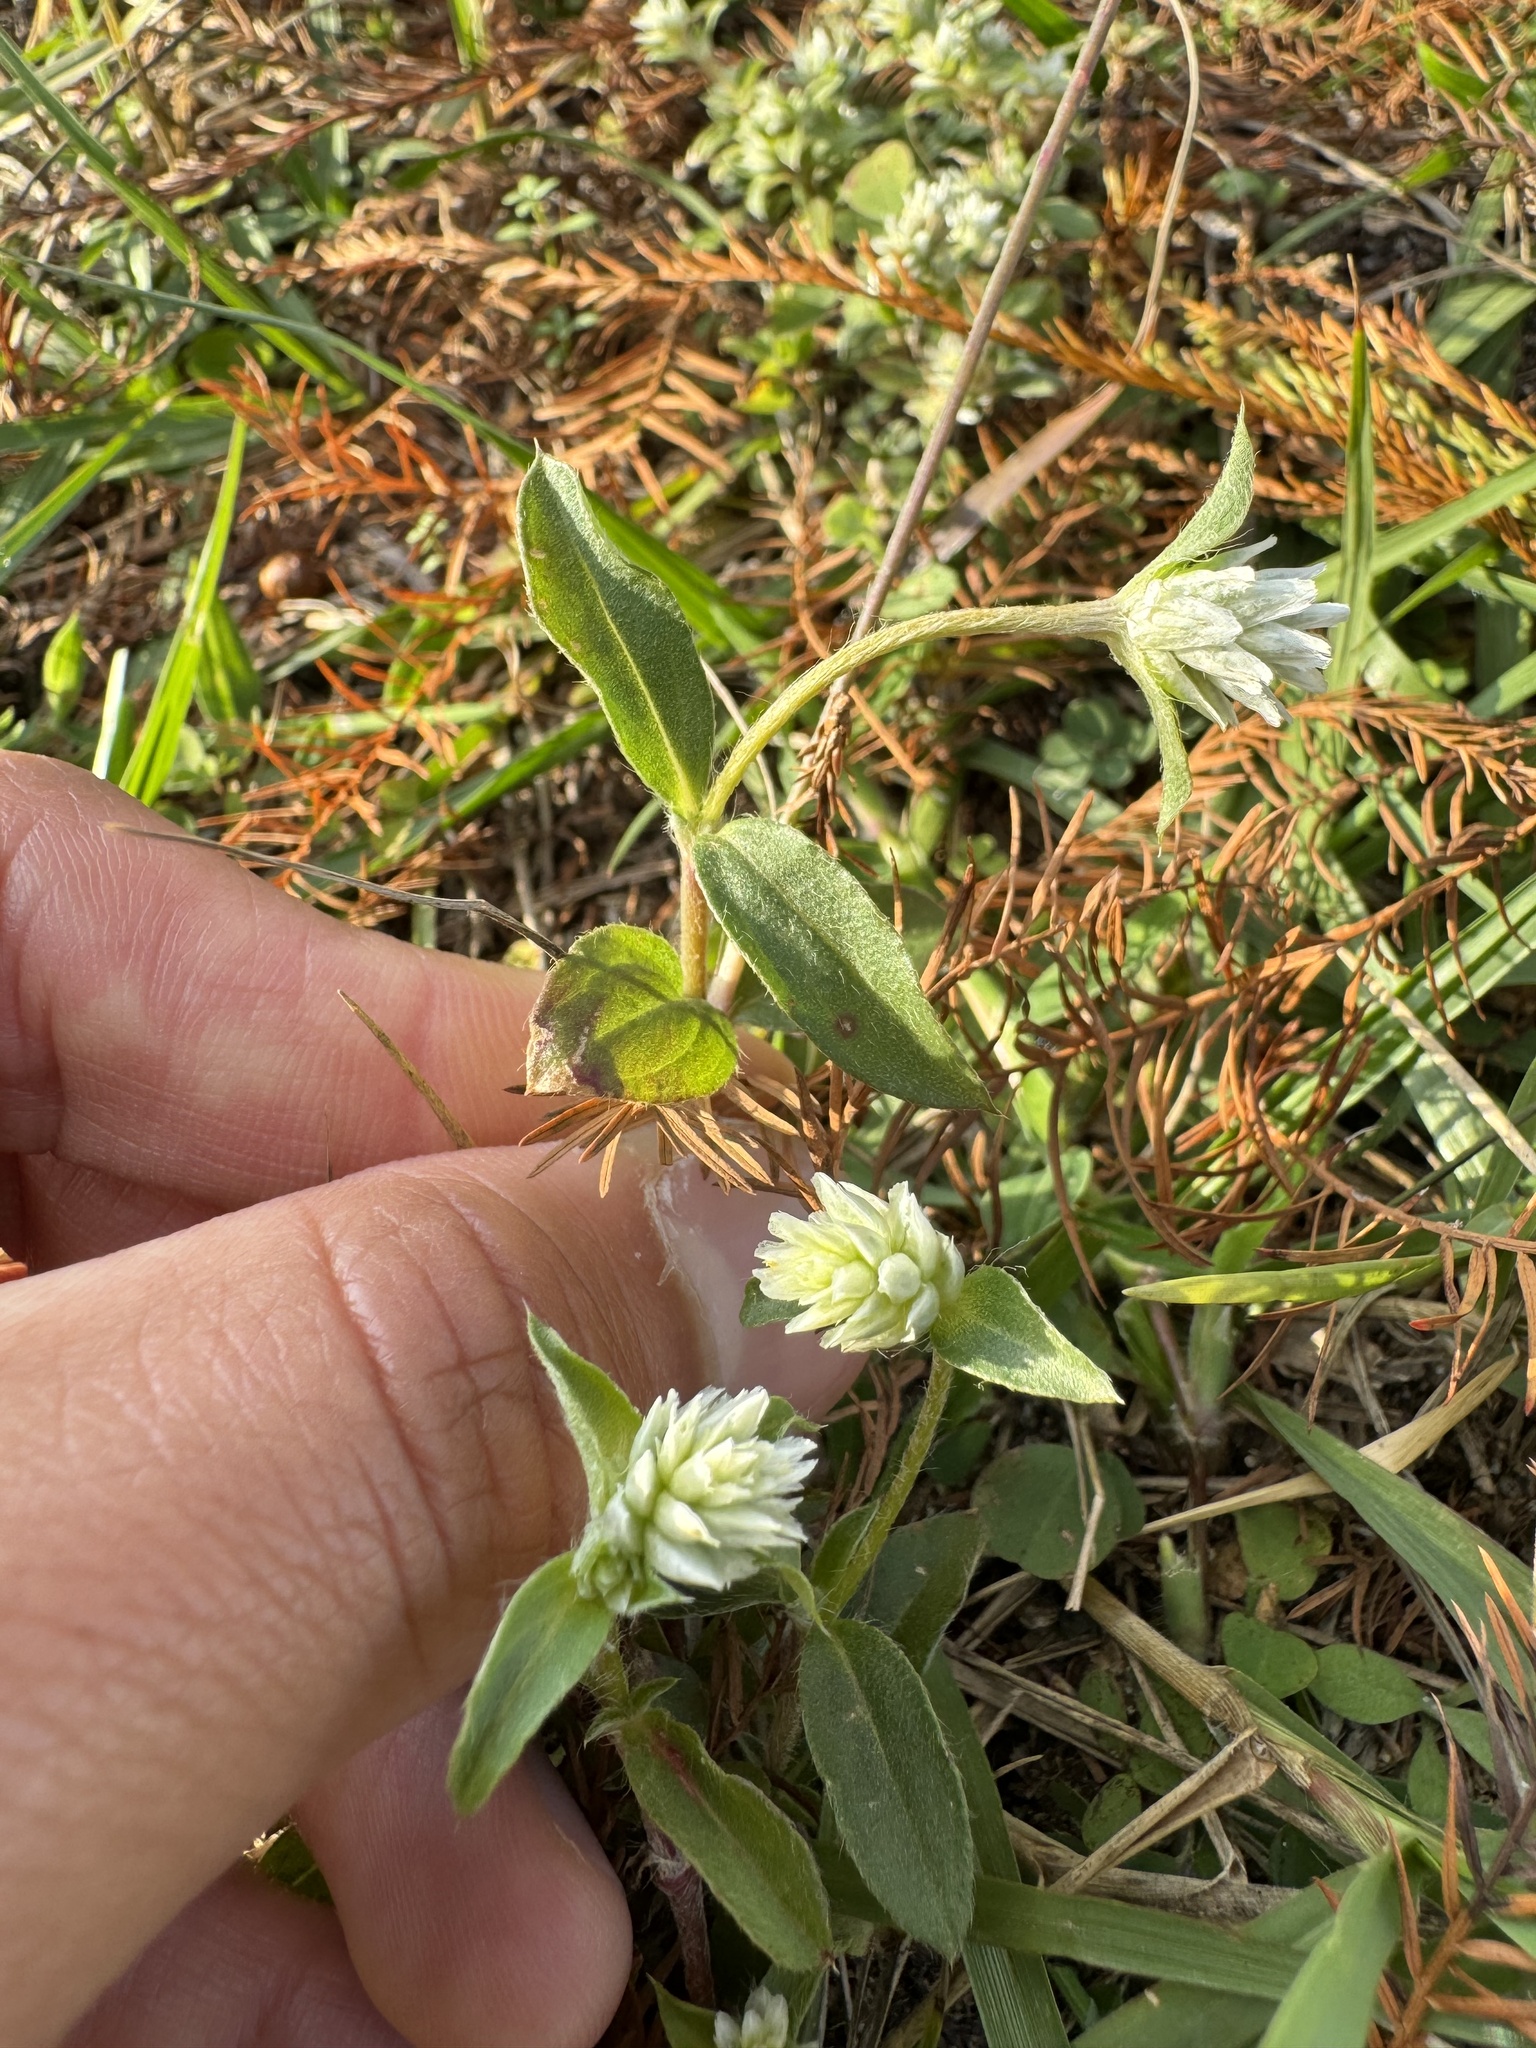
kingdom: Plantae
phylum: Tracheophyta
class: Magnoliopsida
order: Caryophyllales
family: Amaranthaceae
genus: Gomphrena
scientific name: Gomphrena serrata
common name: Arrasa con todo
